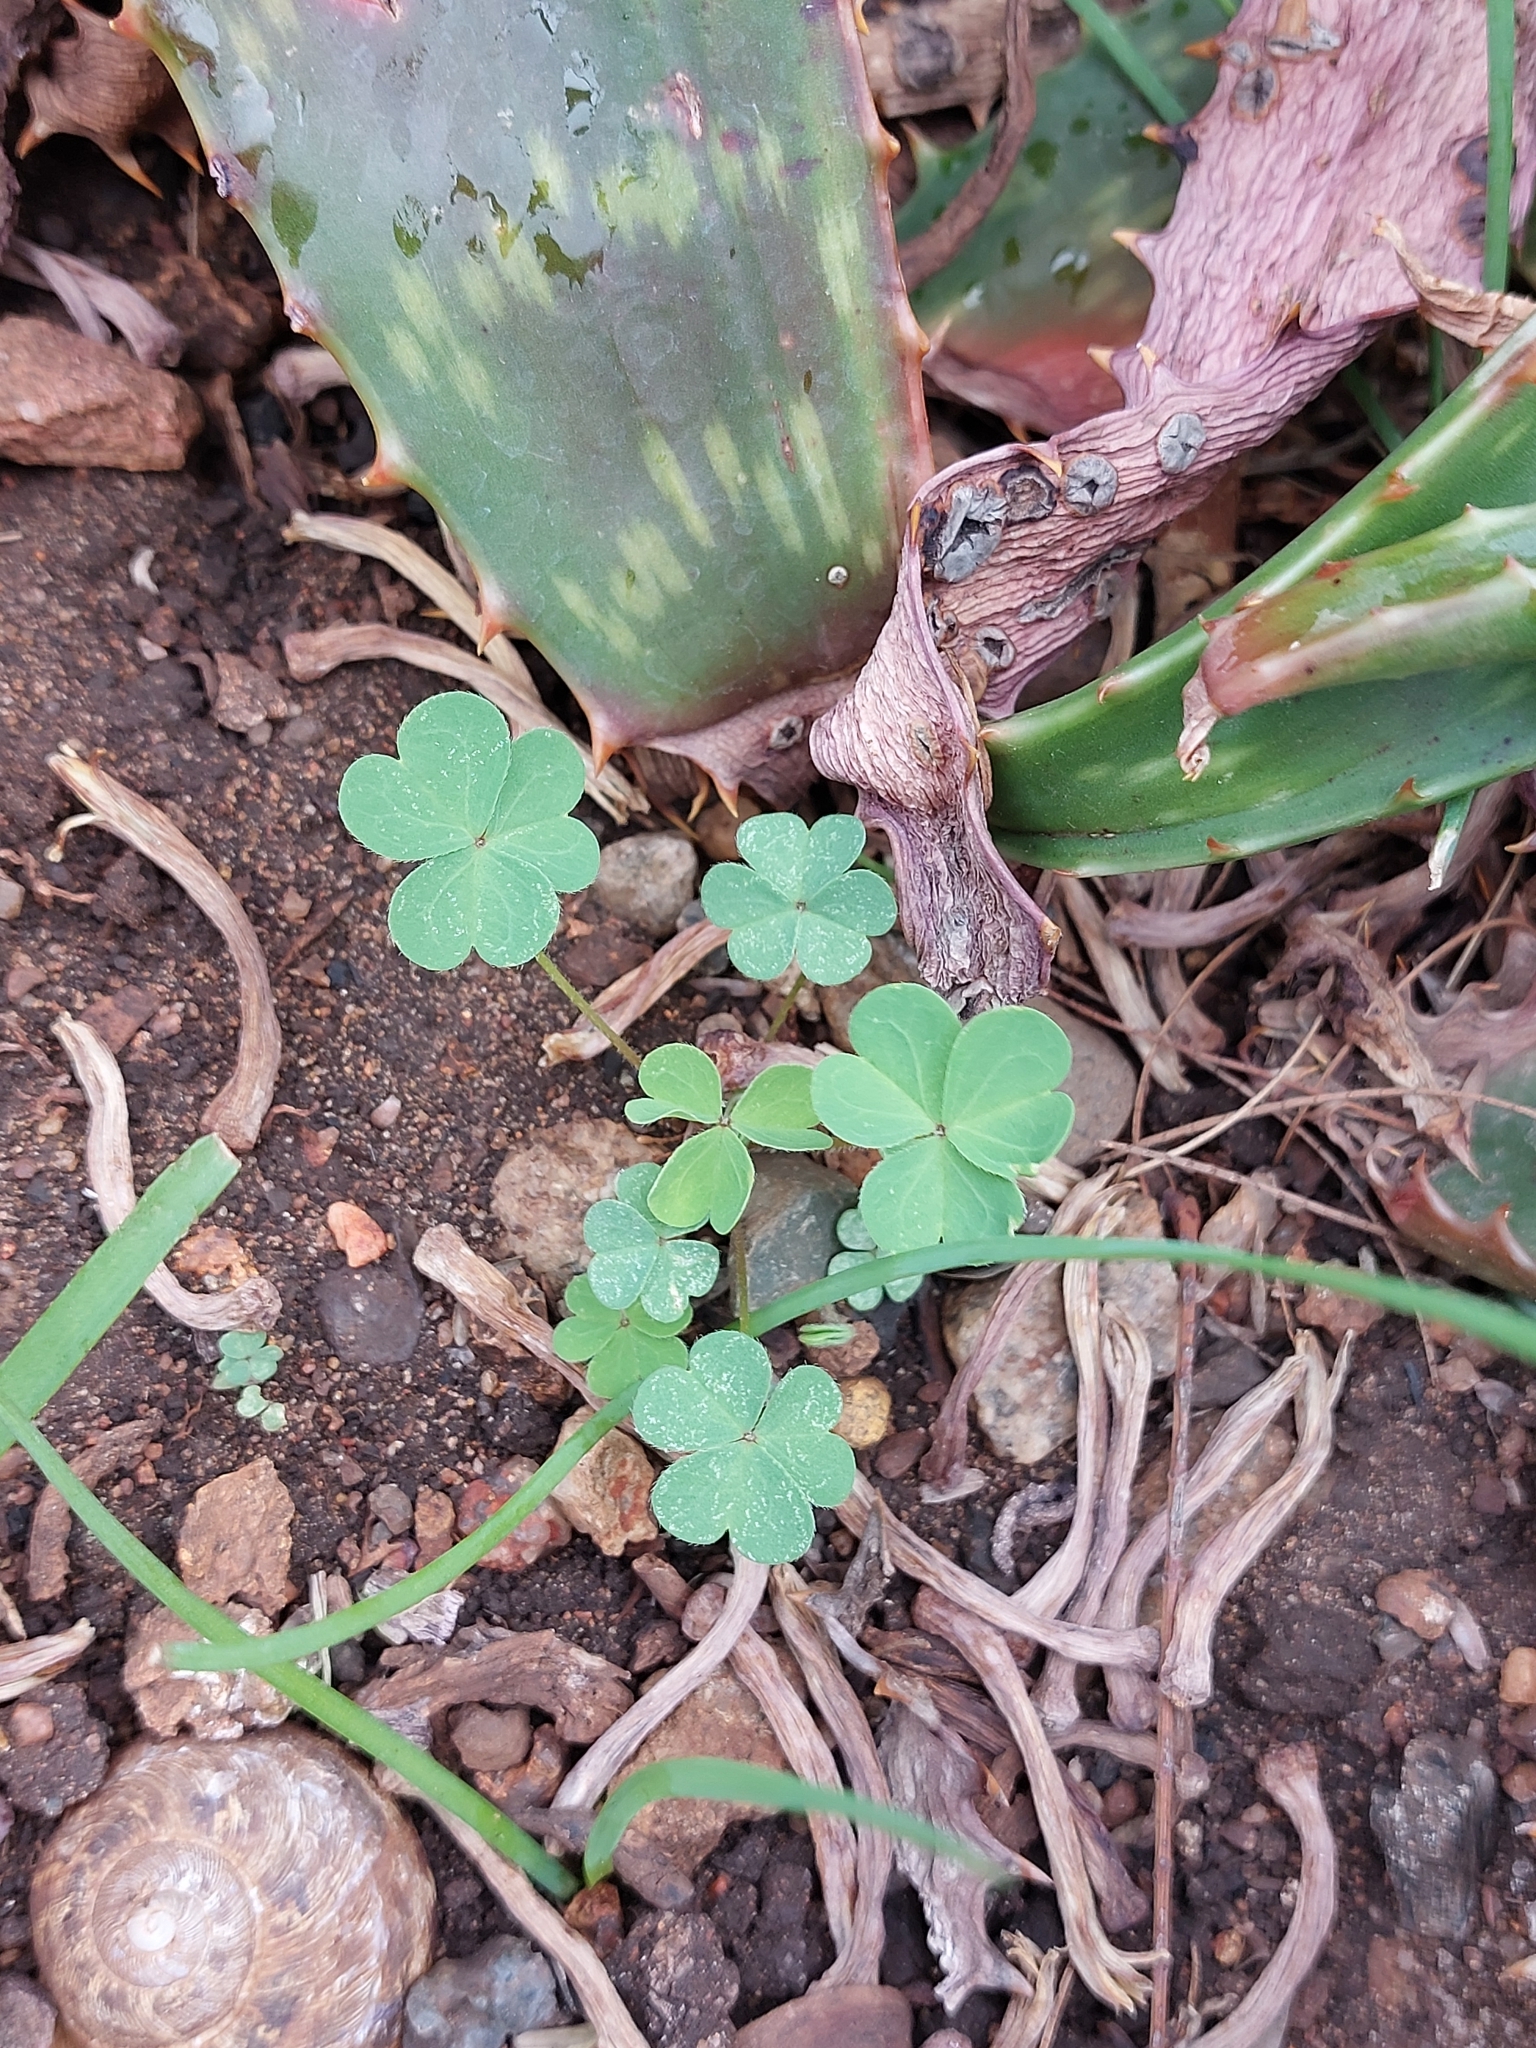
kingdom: Plantae
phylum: Tracheophyta
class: Magnoliopsida
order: Oxalidales
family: Oxalidaceae
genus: Oxalis
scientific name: Oxalis corniculata
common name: Procumbent yellow-sorrel
